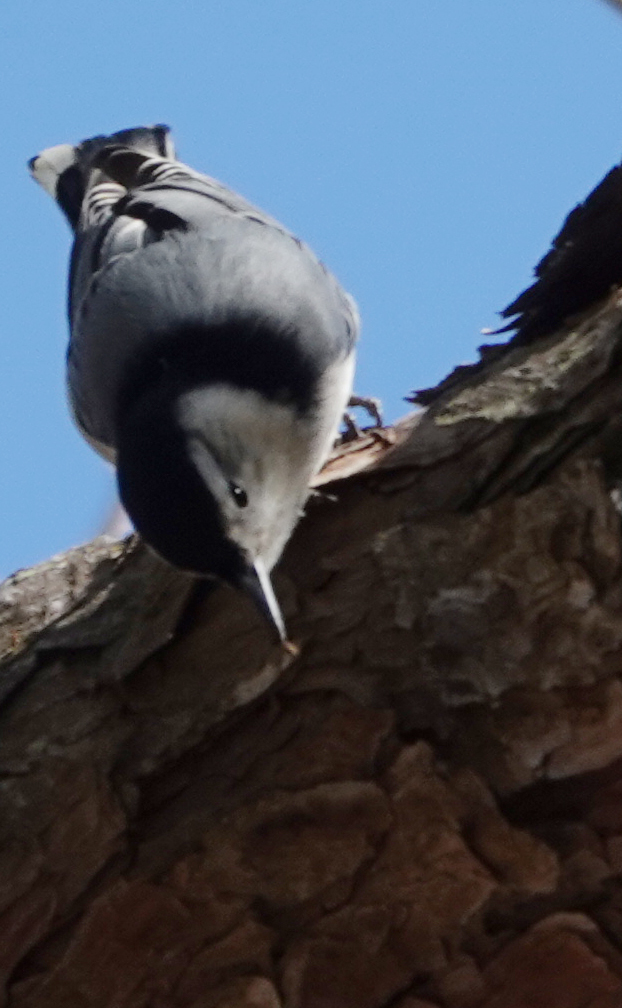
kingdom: Animalia
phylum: Chordata
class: Aves
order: Passeriformes
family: Sittidae
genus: Sitta
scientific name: Sitta carolinensis
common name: White-breasted nuthatch
